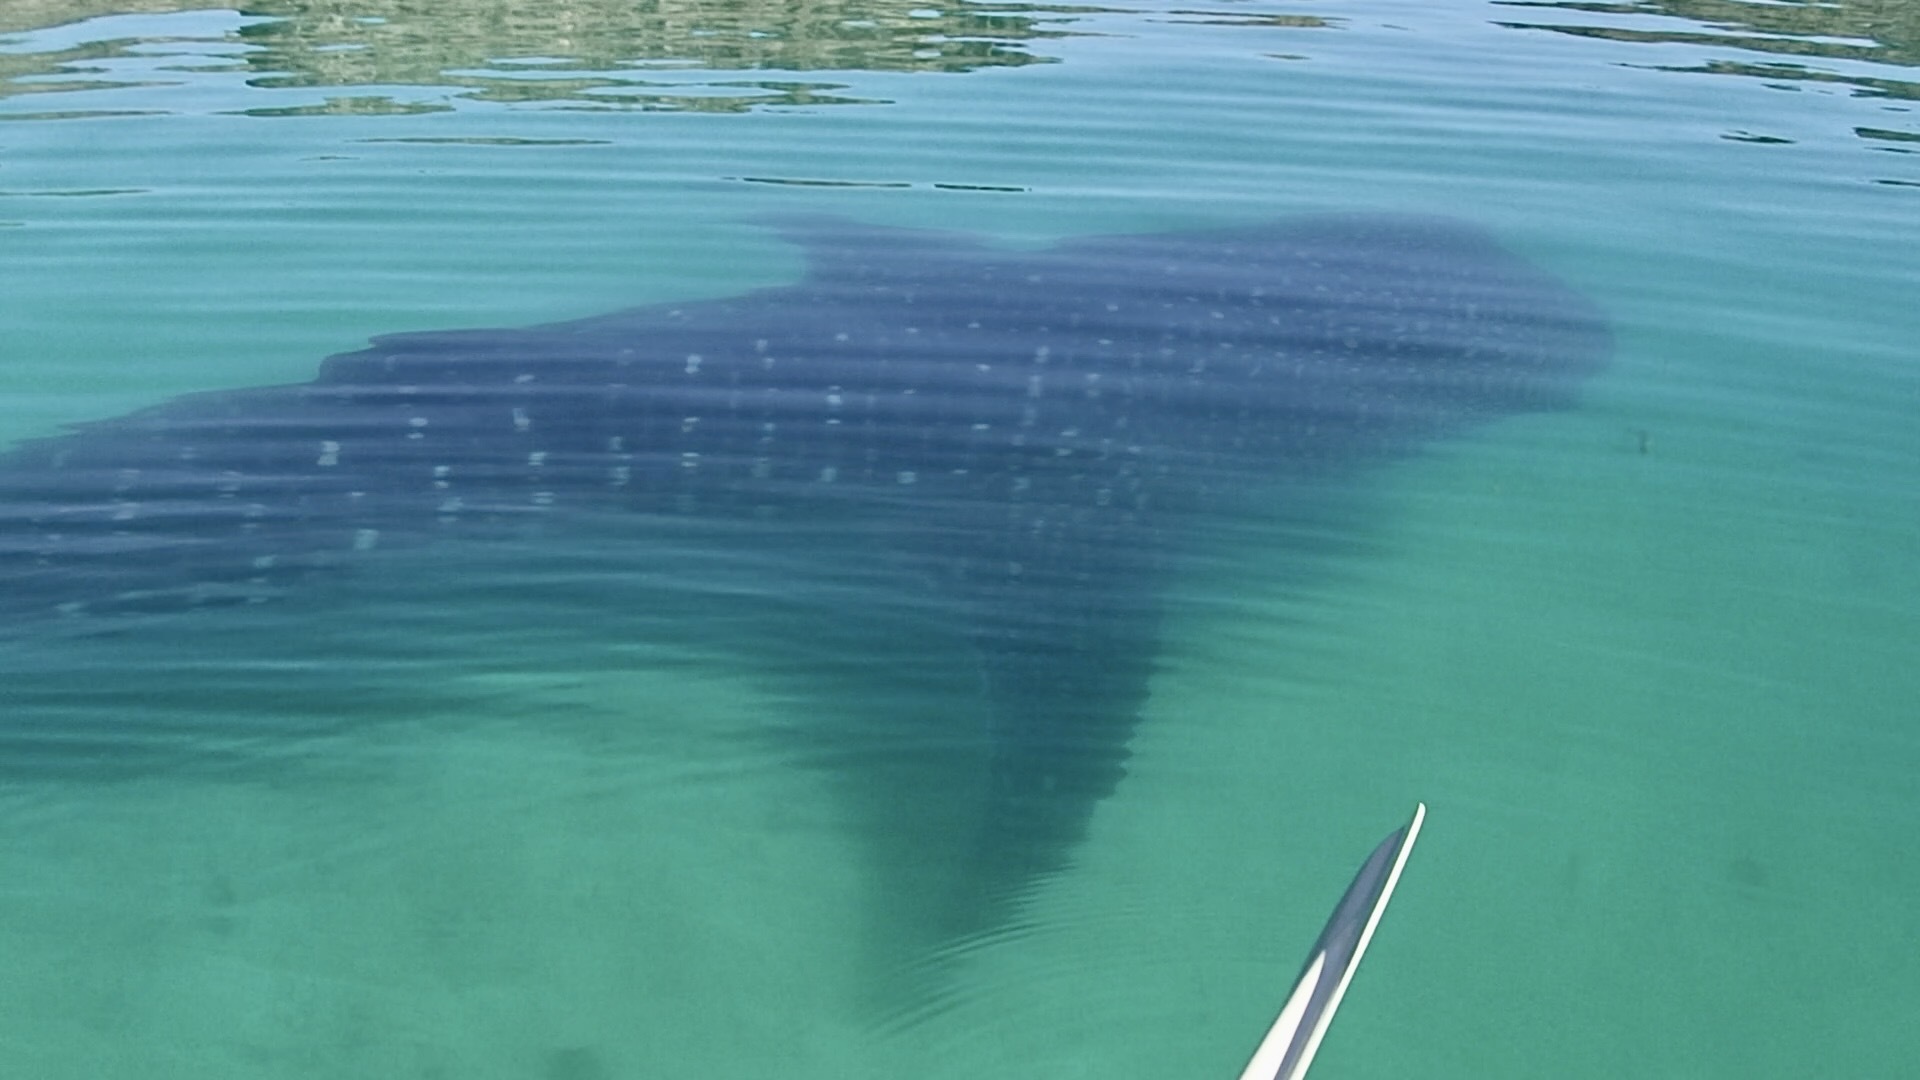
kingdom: Animalia
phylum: Chordata
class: Elasmobranchii
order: Orectolobiformes
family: Rhincodontidae
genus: Rhincodon
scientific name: Rhincodon typus
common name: Whale shark
